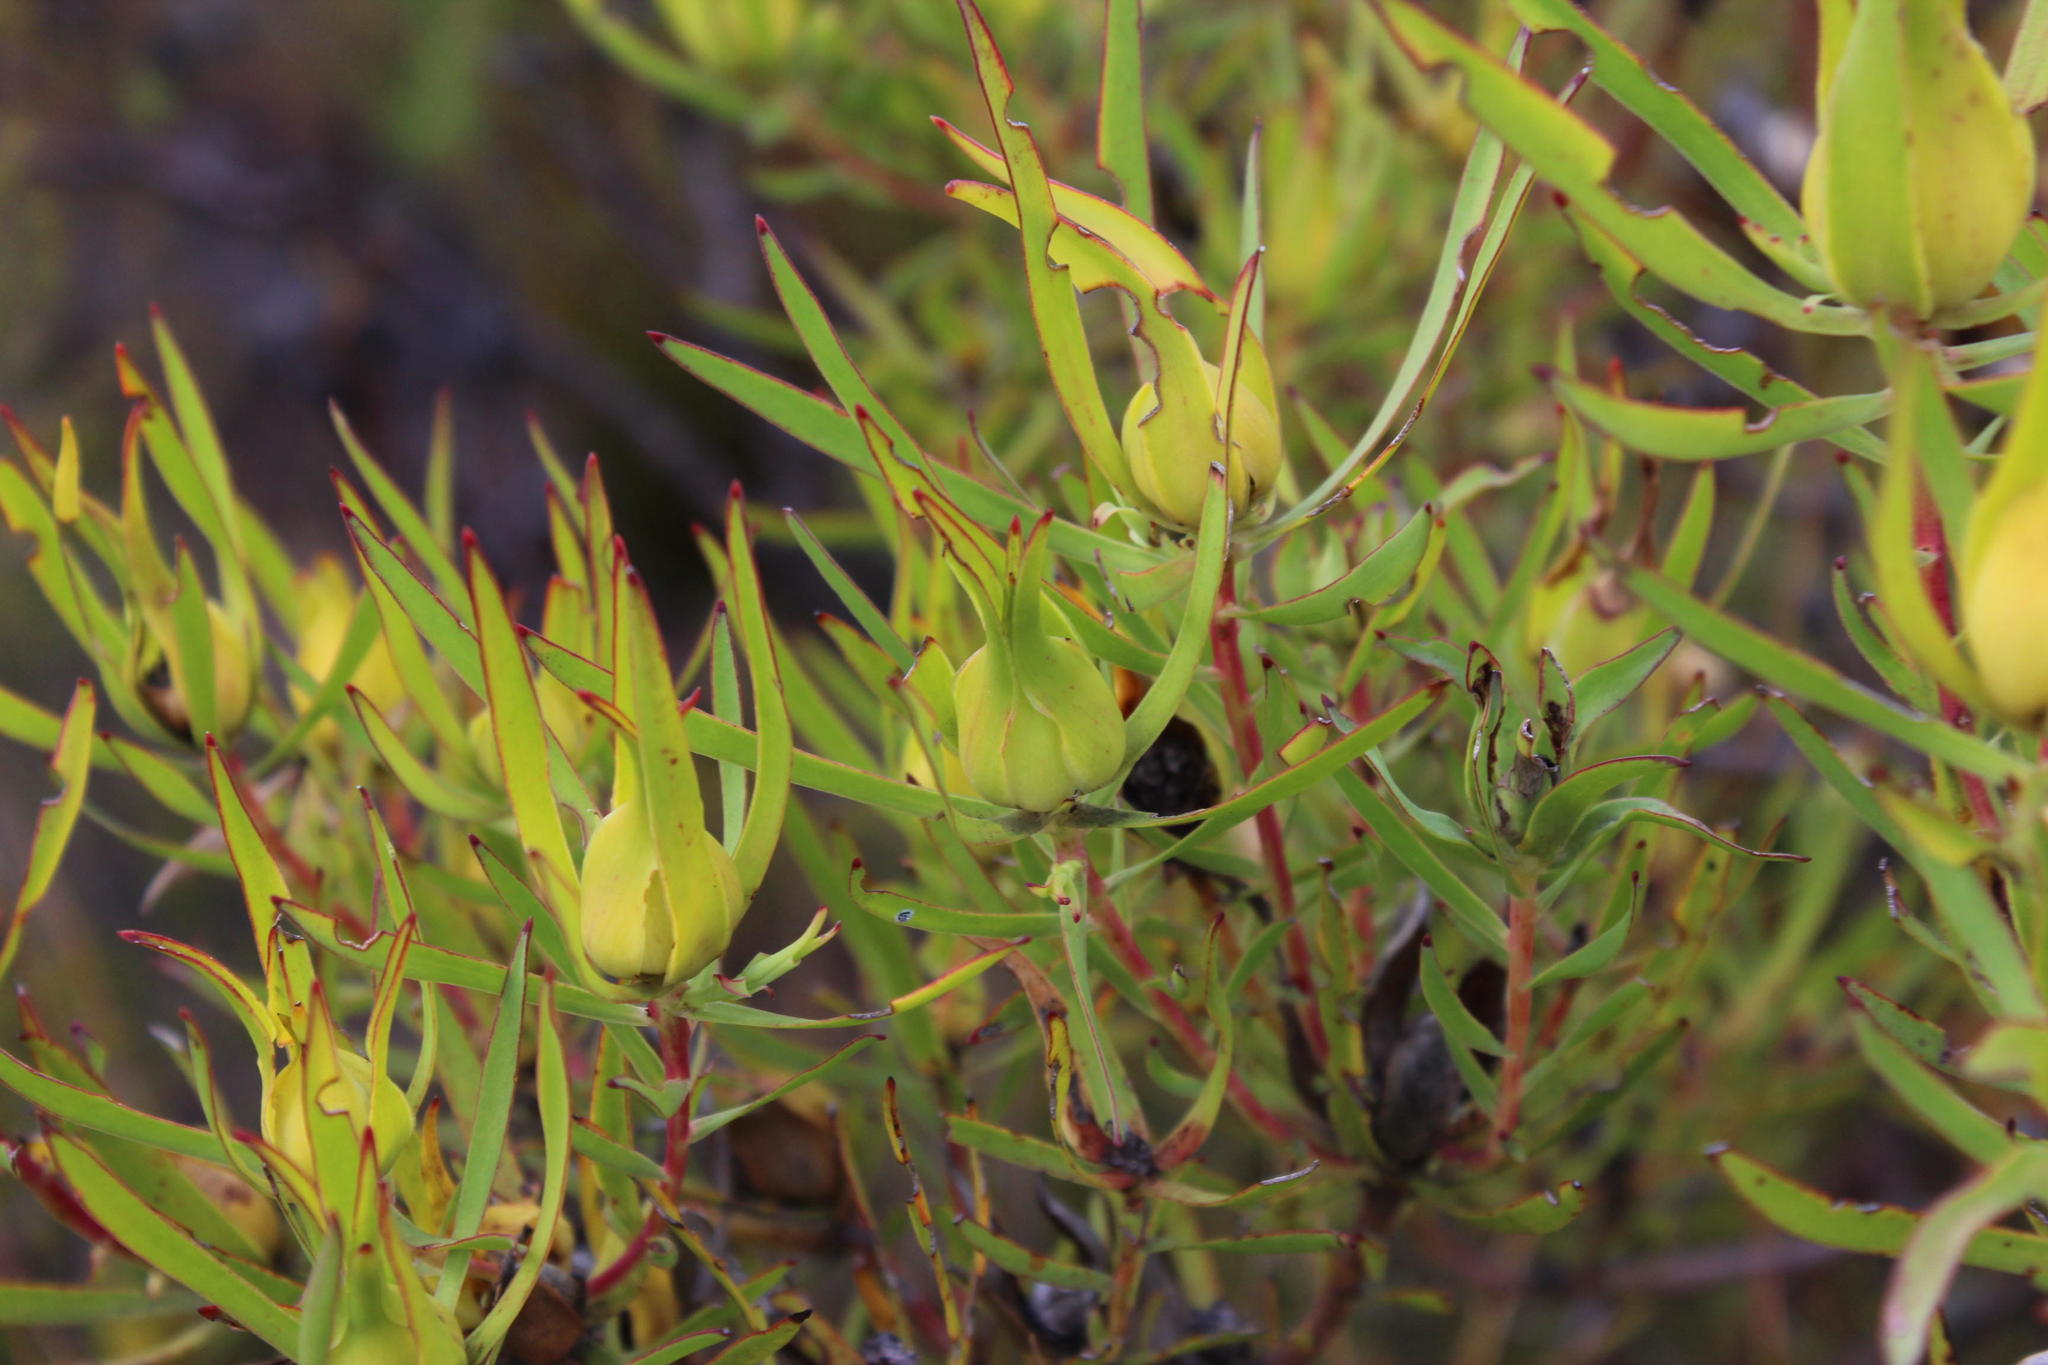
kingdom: Plantae
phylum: Tracheophyta
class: Magnoliopsida
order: Proteales
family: Proteaceae
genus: Leucadendron
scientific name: Leucadendron salignum
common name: Common sunshine conebush
